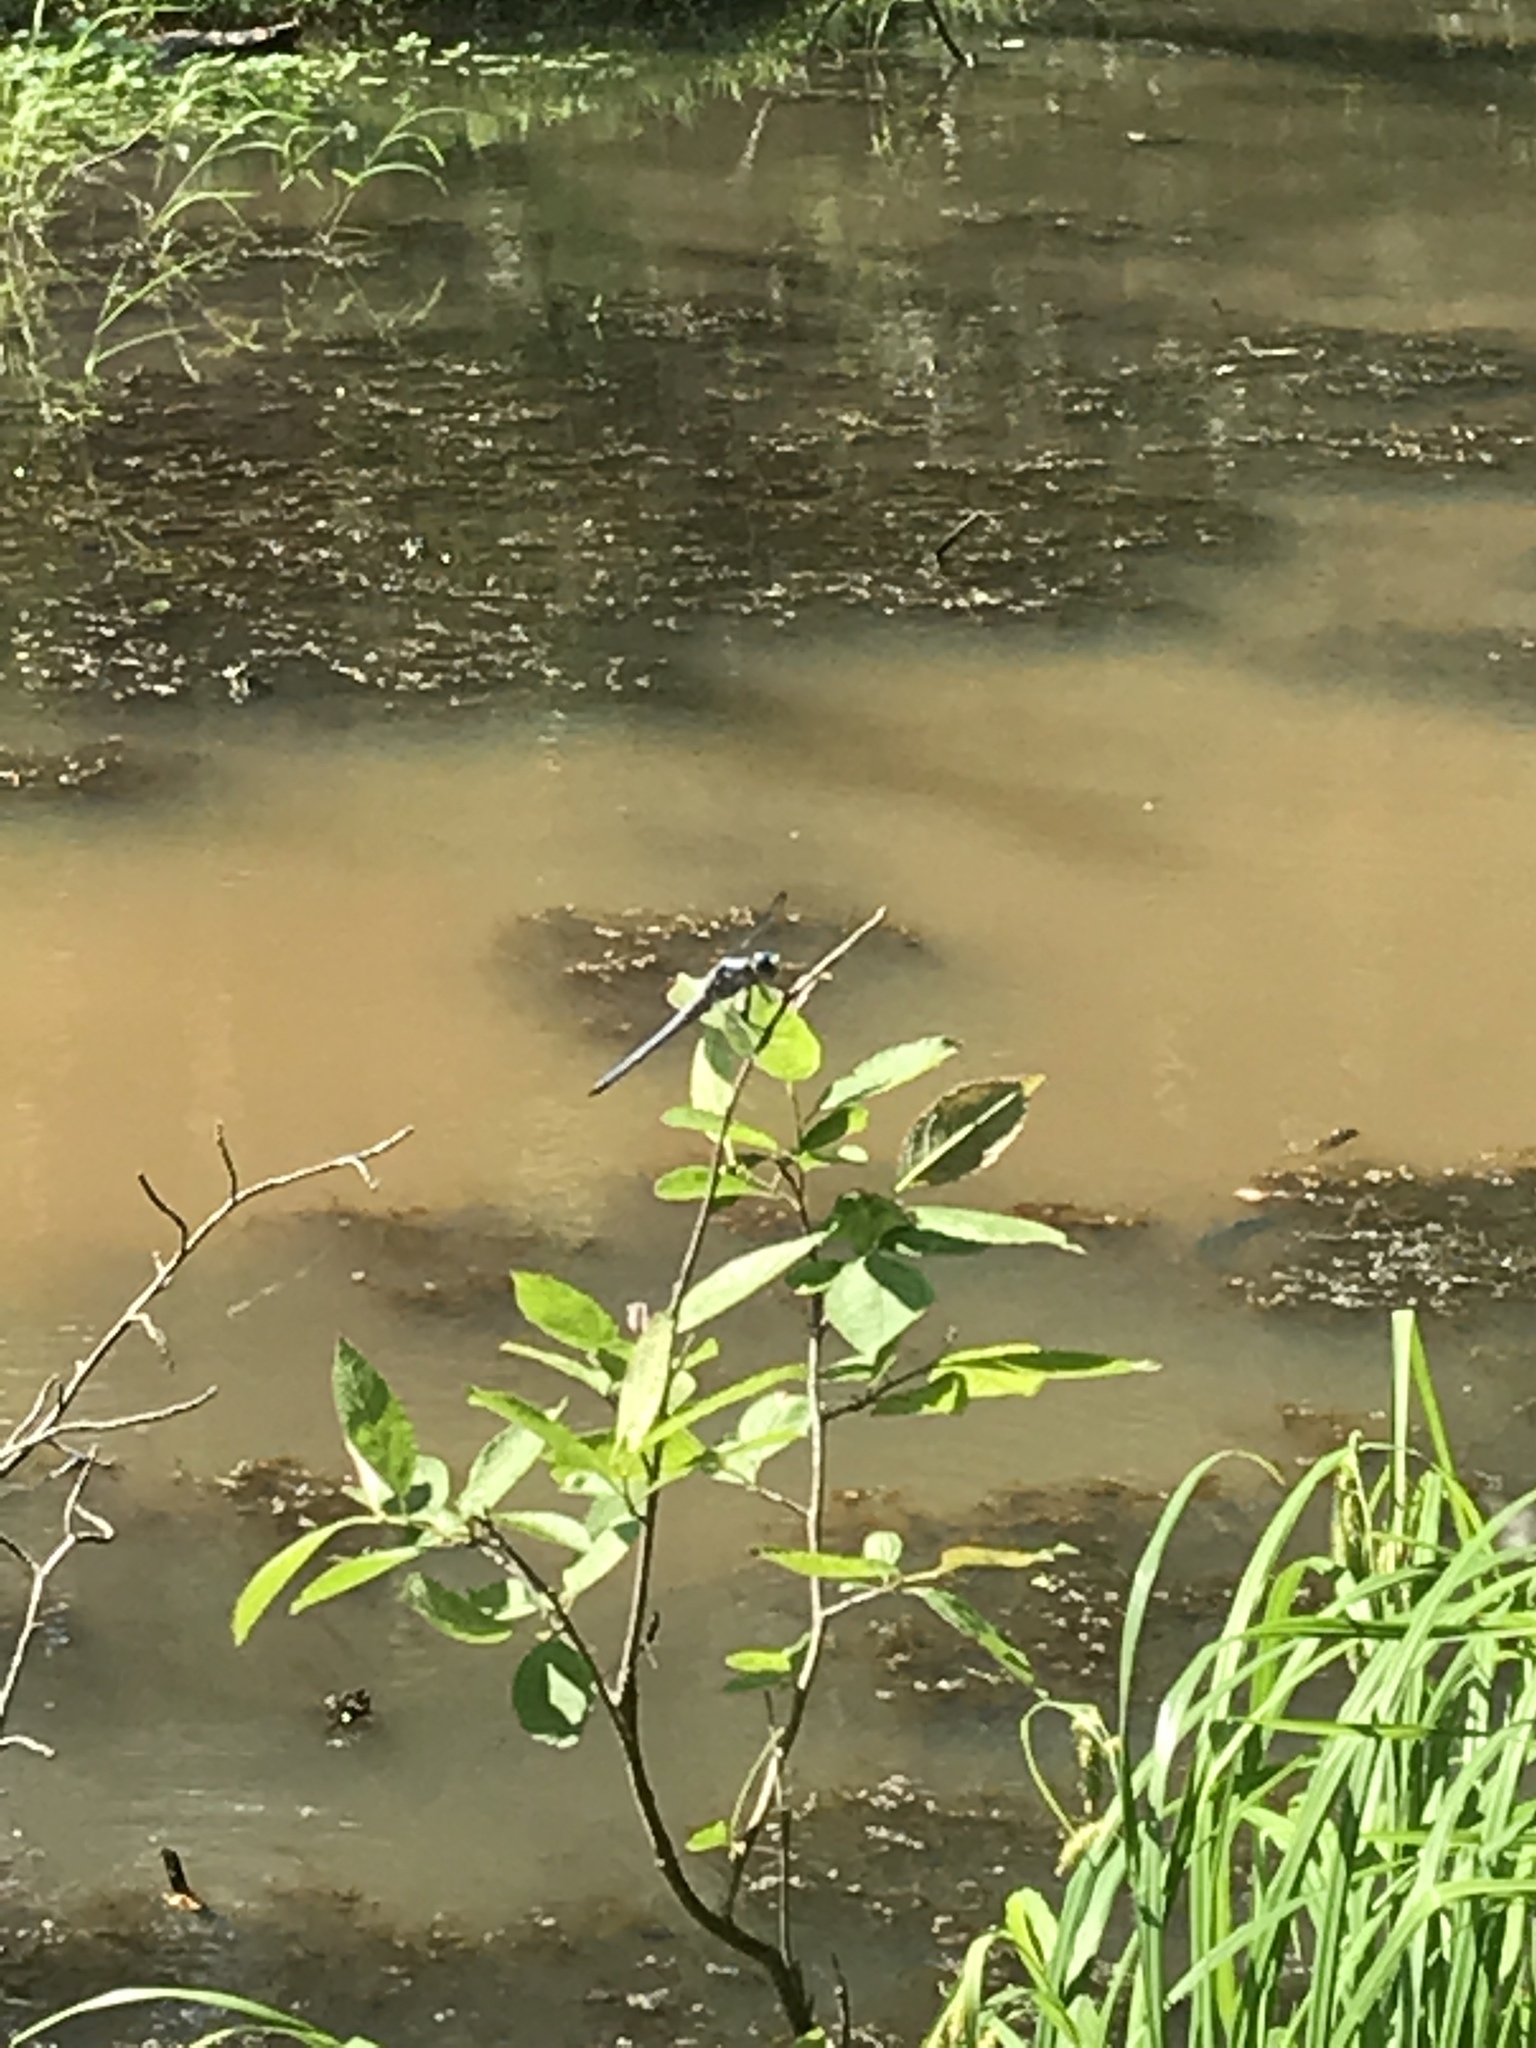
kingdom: Animalia
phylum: Arthropoda
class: Insecta
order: Odonata
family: Libellulidae
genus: Libellula
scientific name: Libellula vibrans
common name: Great blue skimmer
